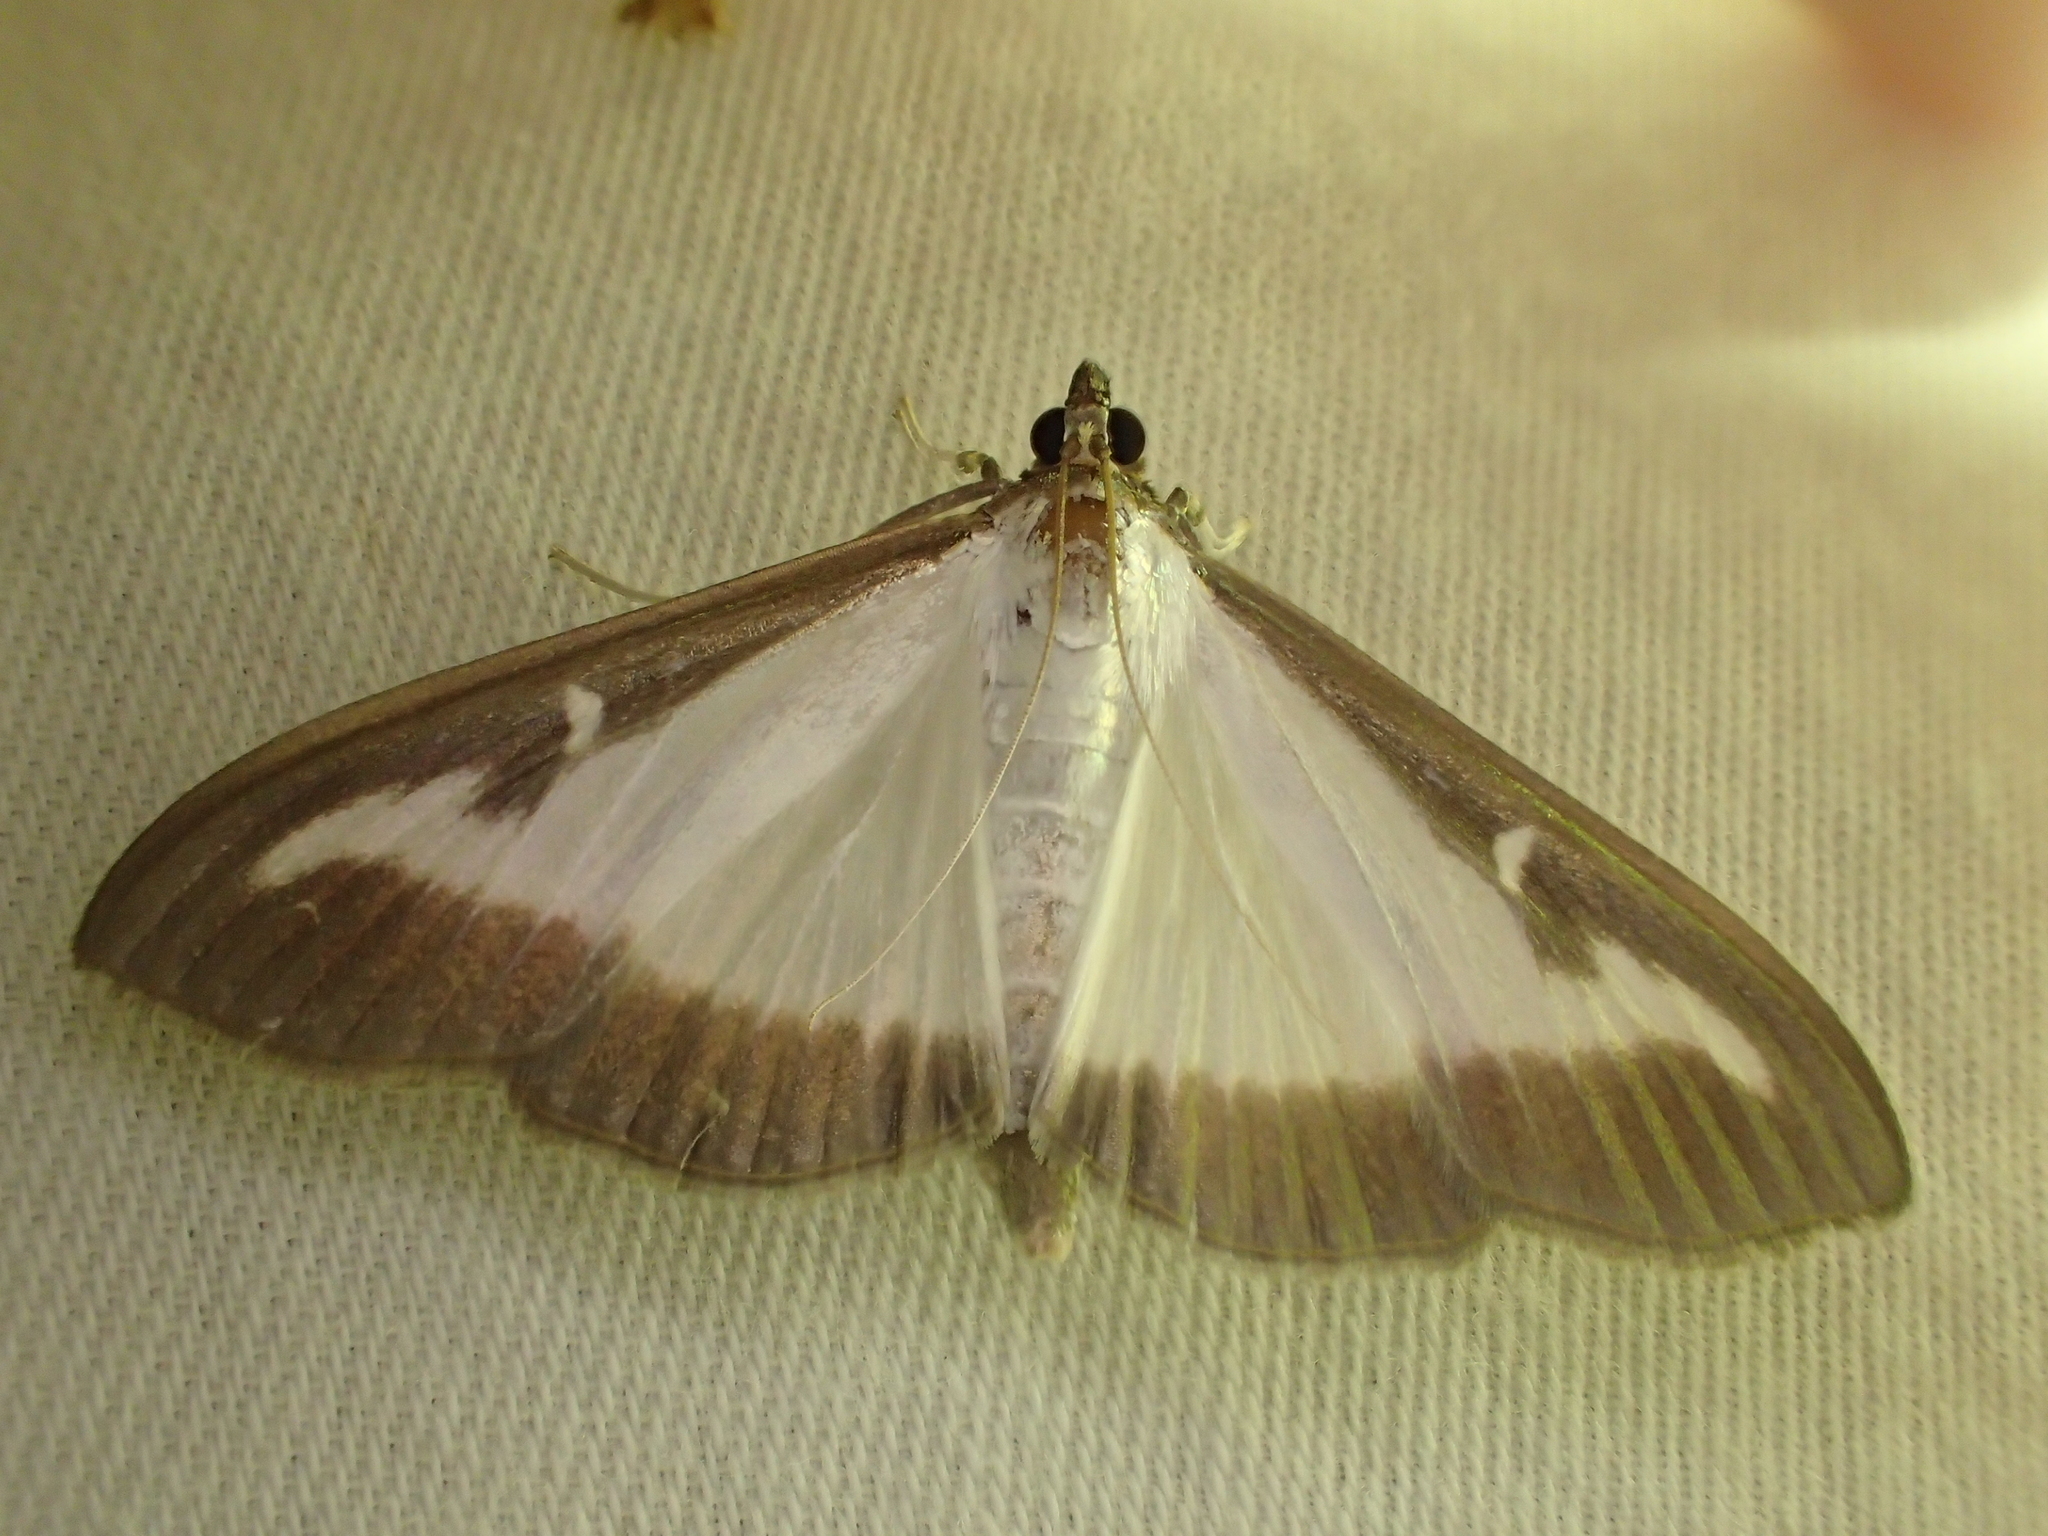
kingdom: Animalia
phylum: Arthropoda
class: Insecta
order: Lepidoptera
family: Crambidae
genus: Cydalima
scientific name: Cydalima perspectalis
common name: Box tree moth
